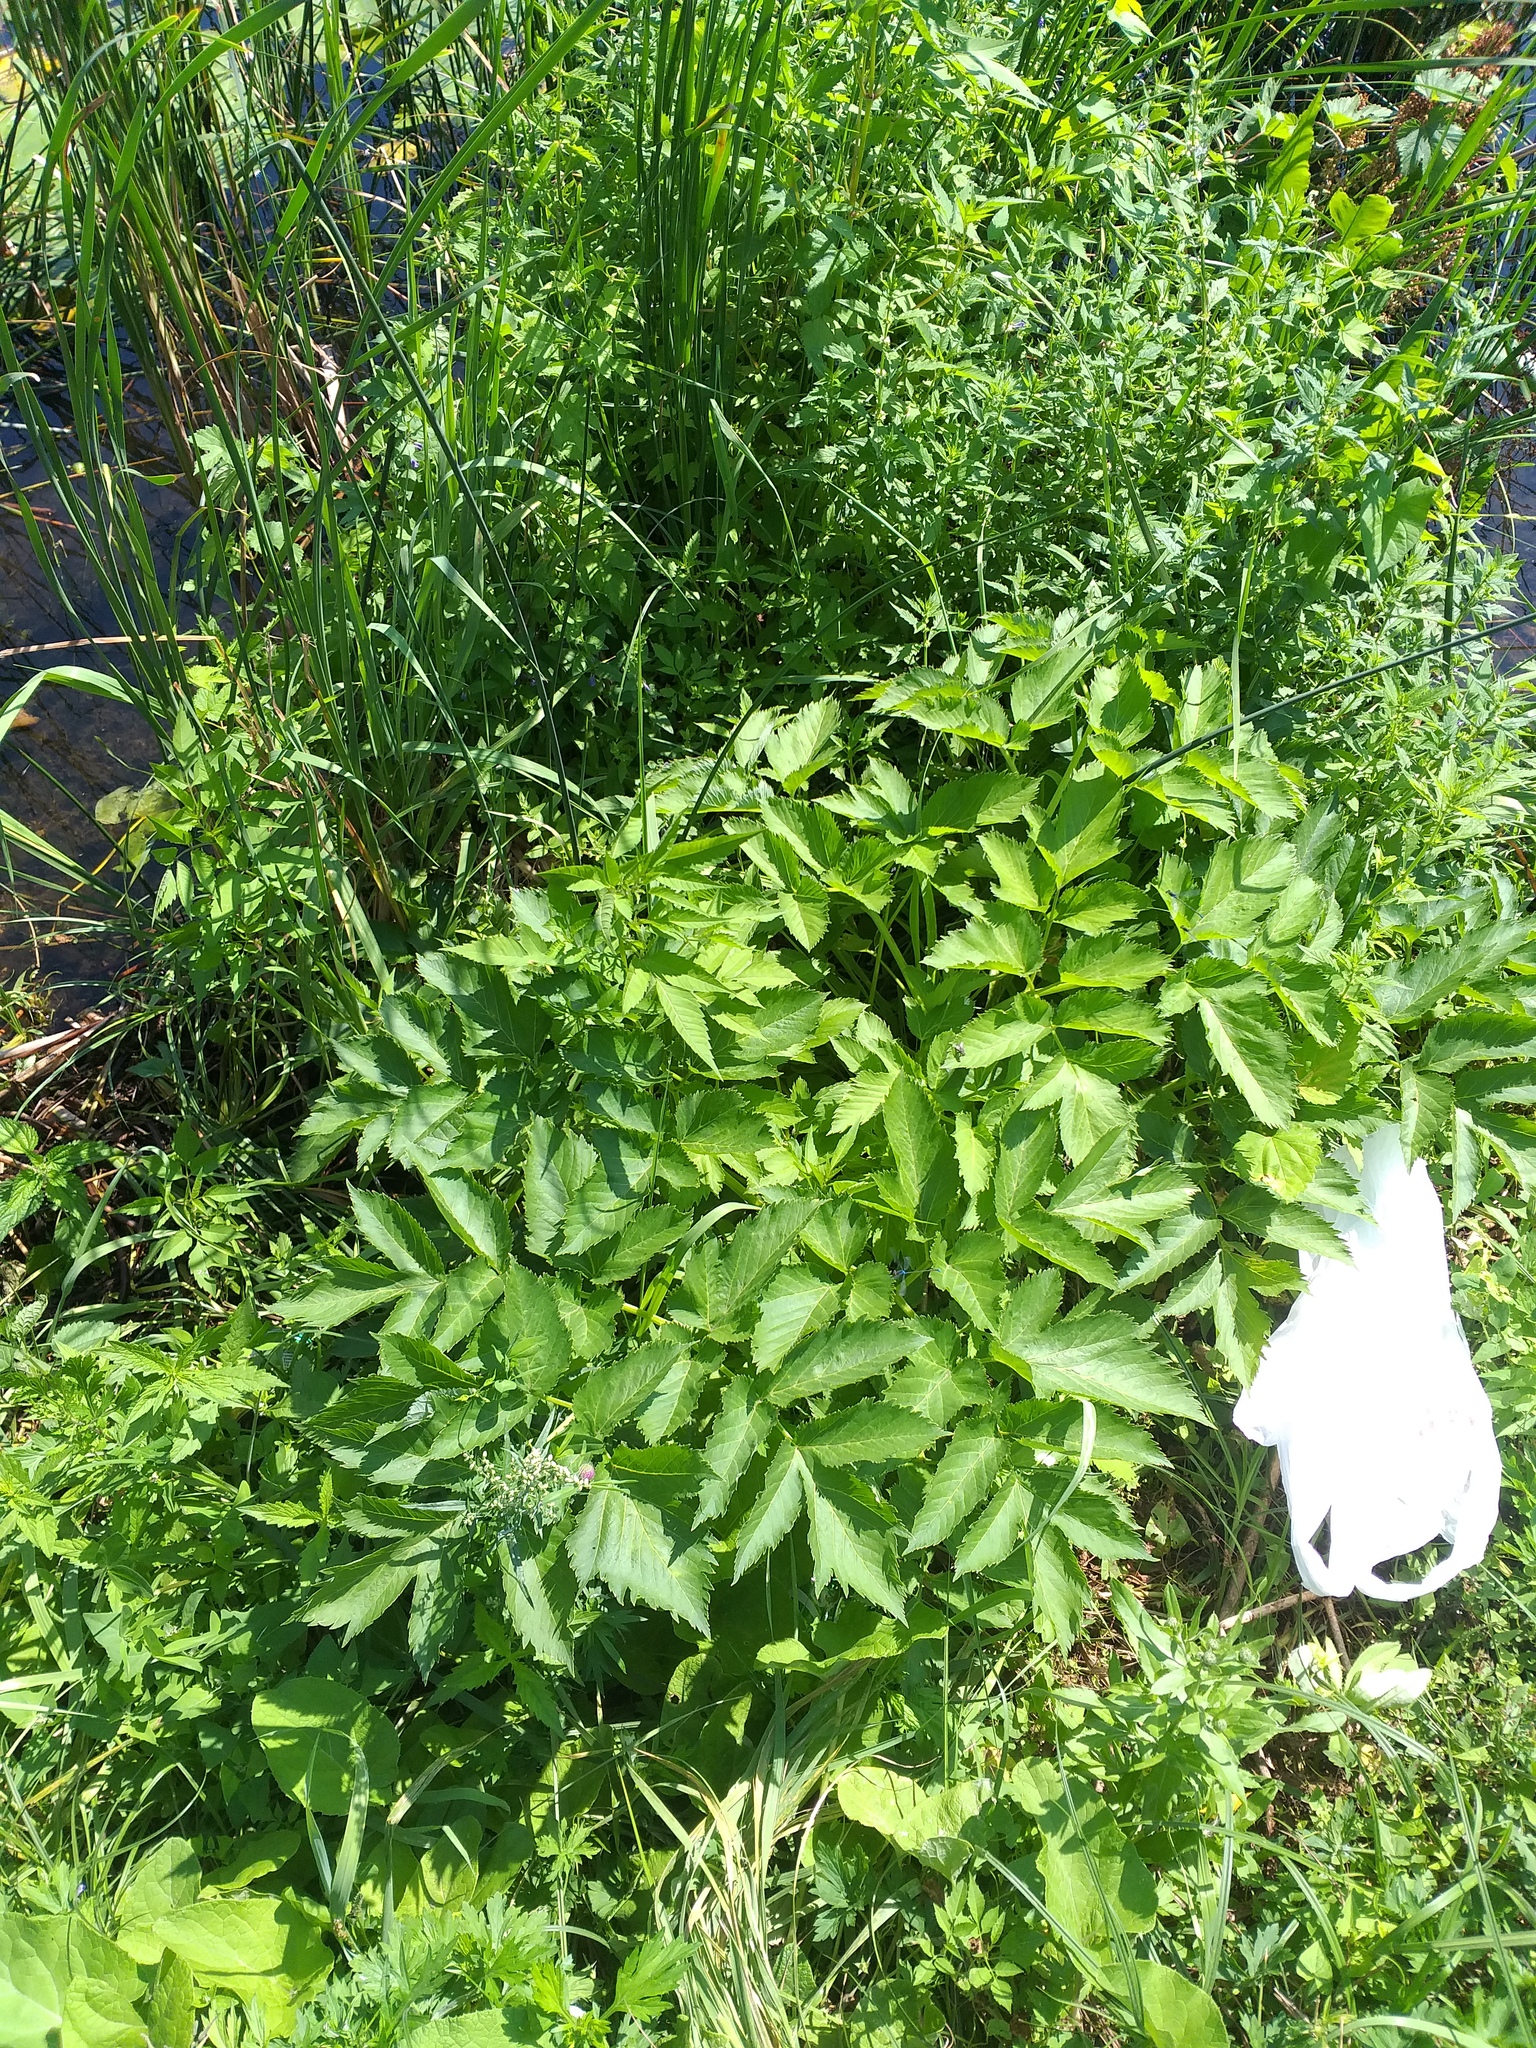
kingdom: Plantae
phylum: Tracheophyta
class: Magnoliopsida
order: Apiales
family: Apiaceae
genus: Angelica
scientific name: Angelica archangelica
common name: Garden angelica
